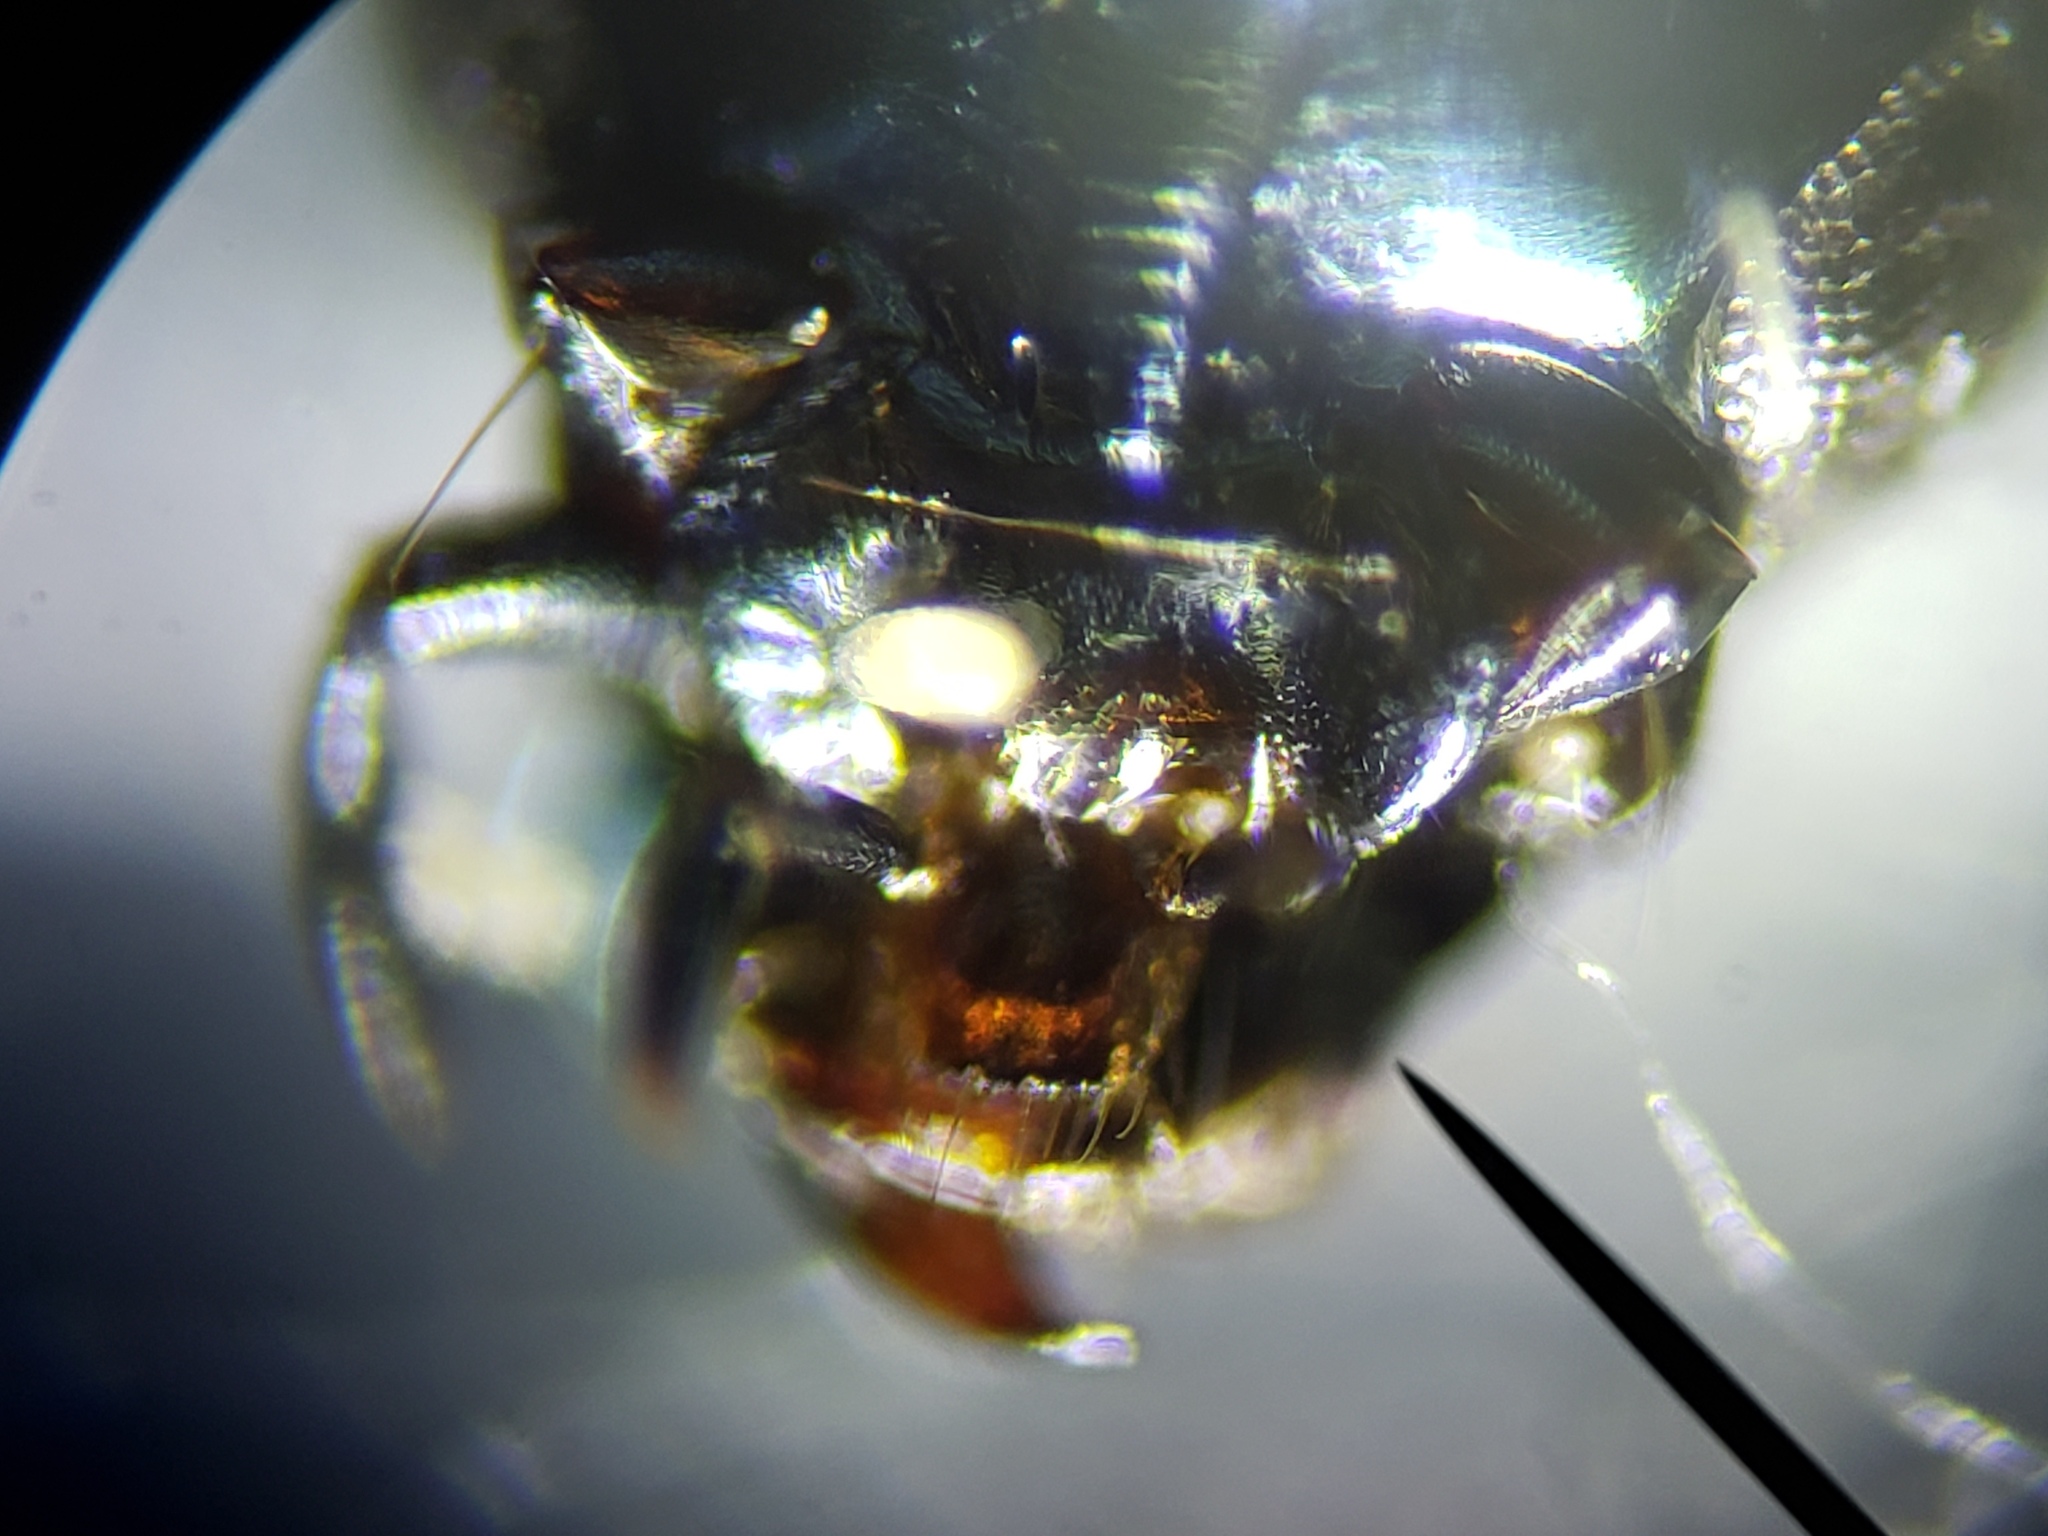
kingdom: Animalia
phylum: Arthropoda
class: Insecta
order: Coleoptera
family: Carabidae
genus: Lebia
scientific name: Lebia viridis
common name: Flower lebia beetle
